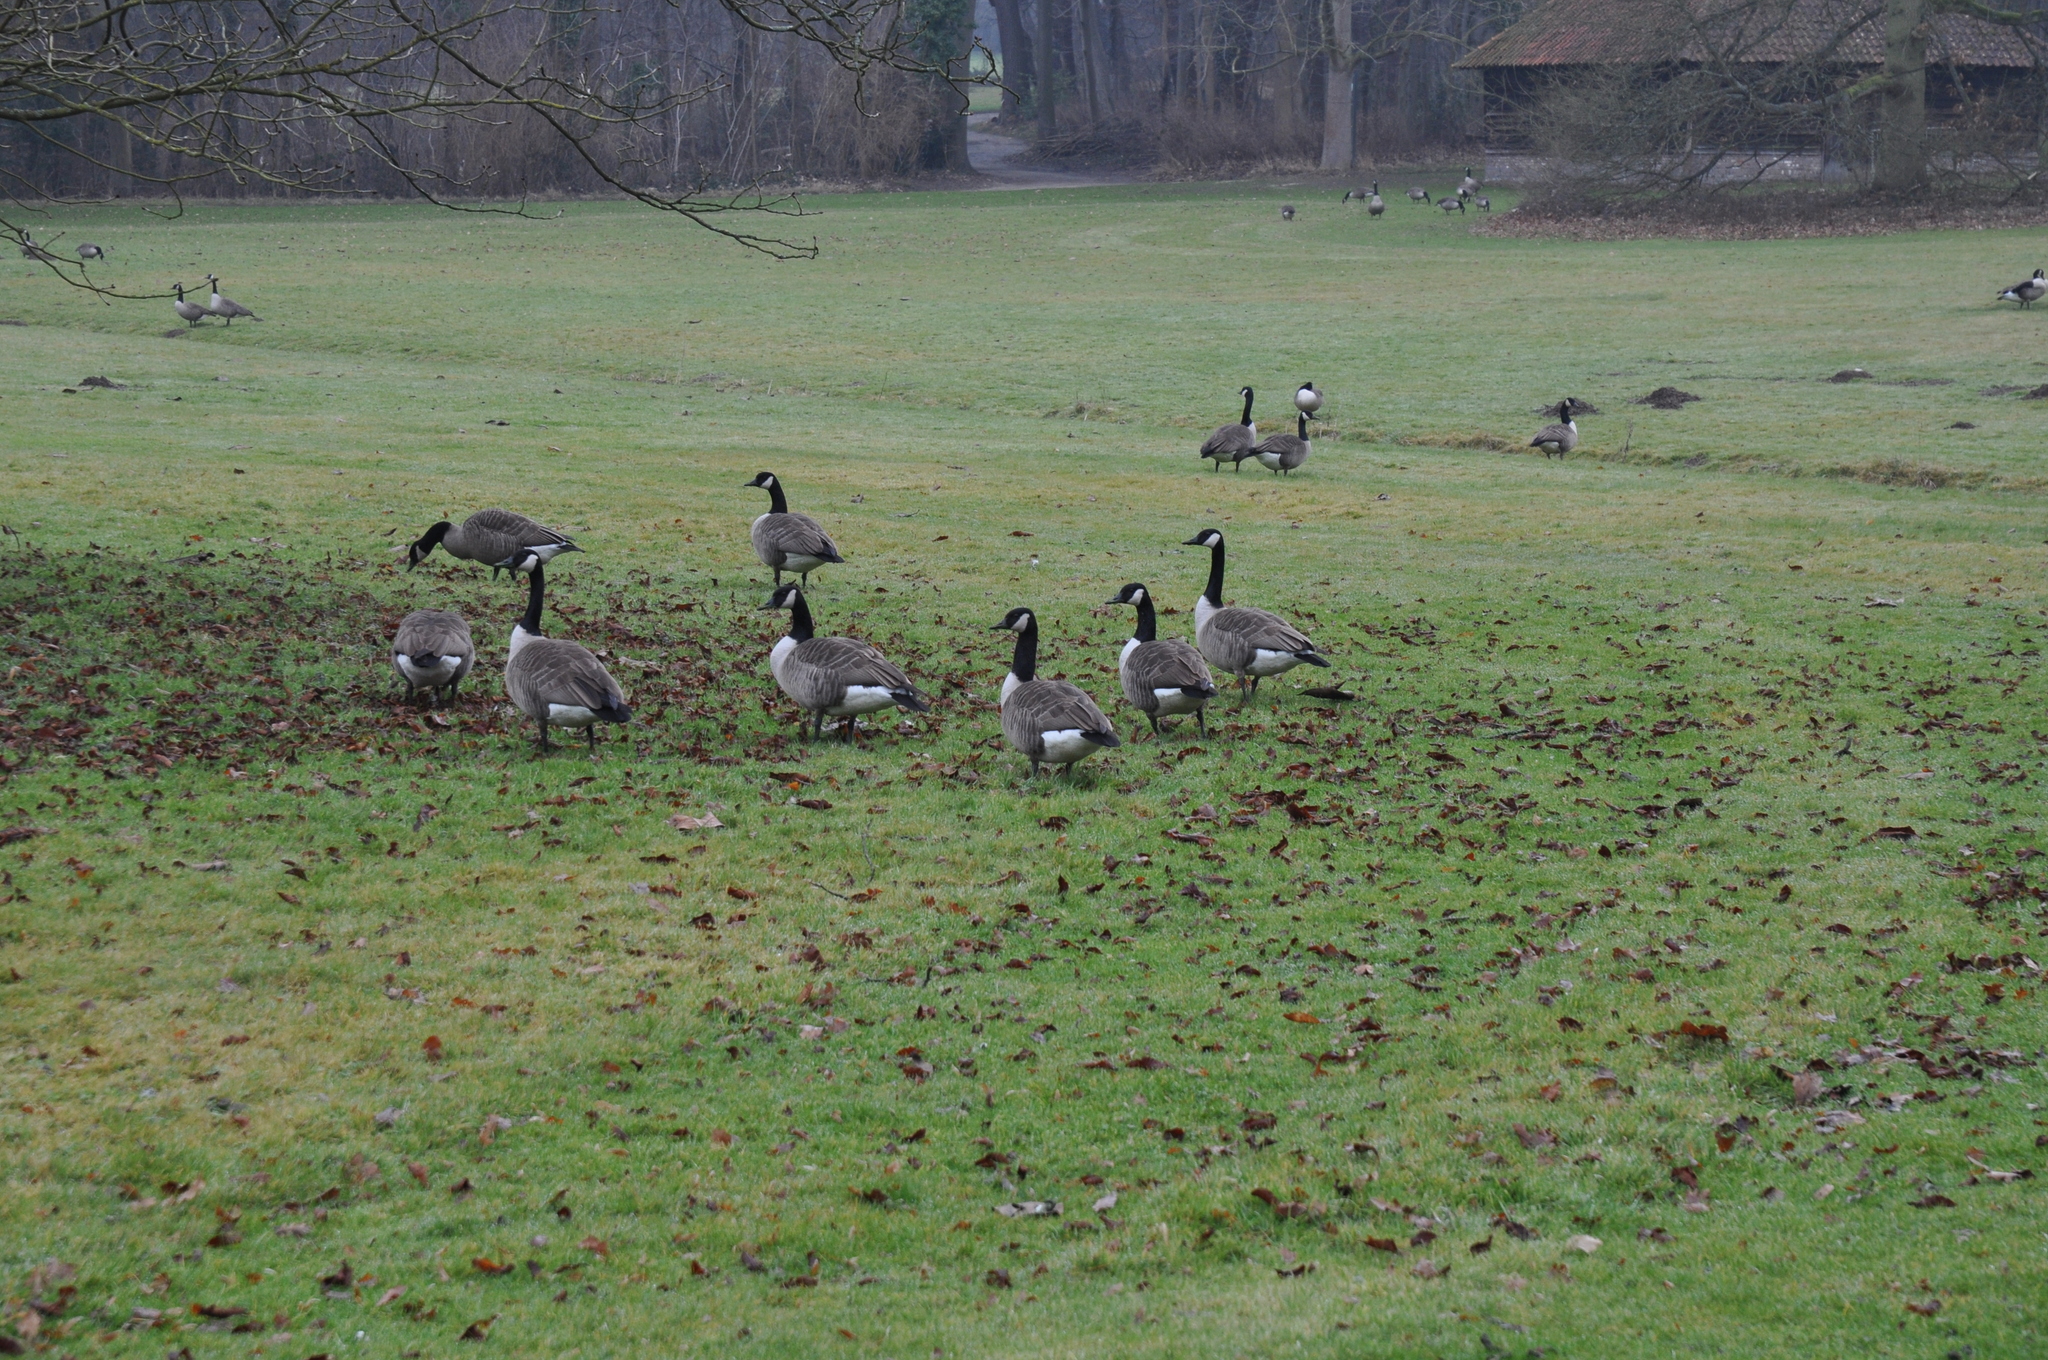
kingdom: Animalia
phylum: Chordata
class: Aves
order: Anseriformes
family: Anatidae
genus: Branta
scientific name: Branta canadensis
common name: Canada goose
